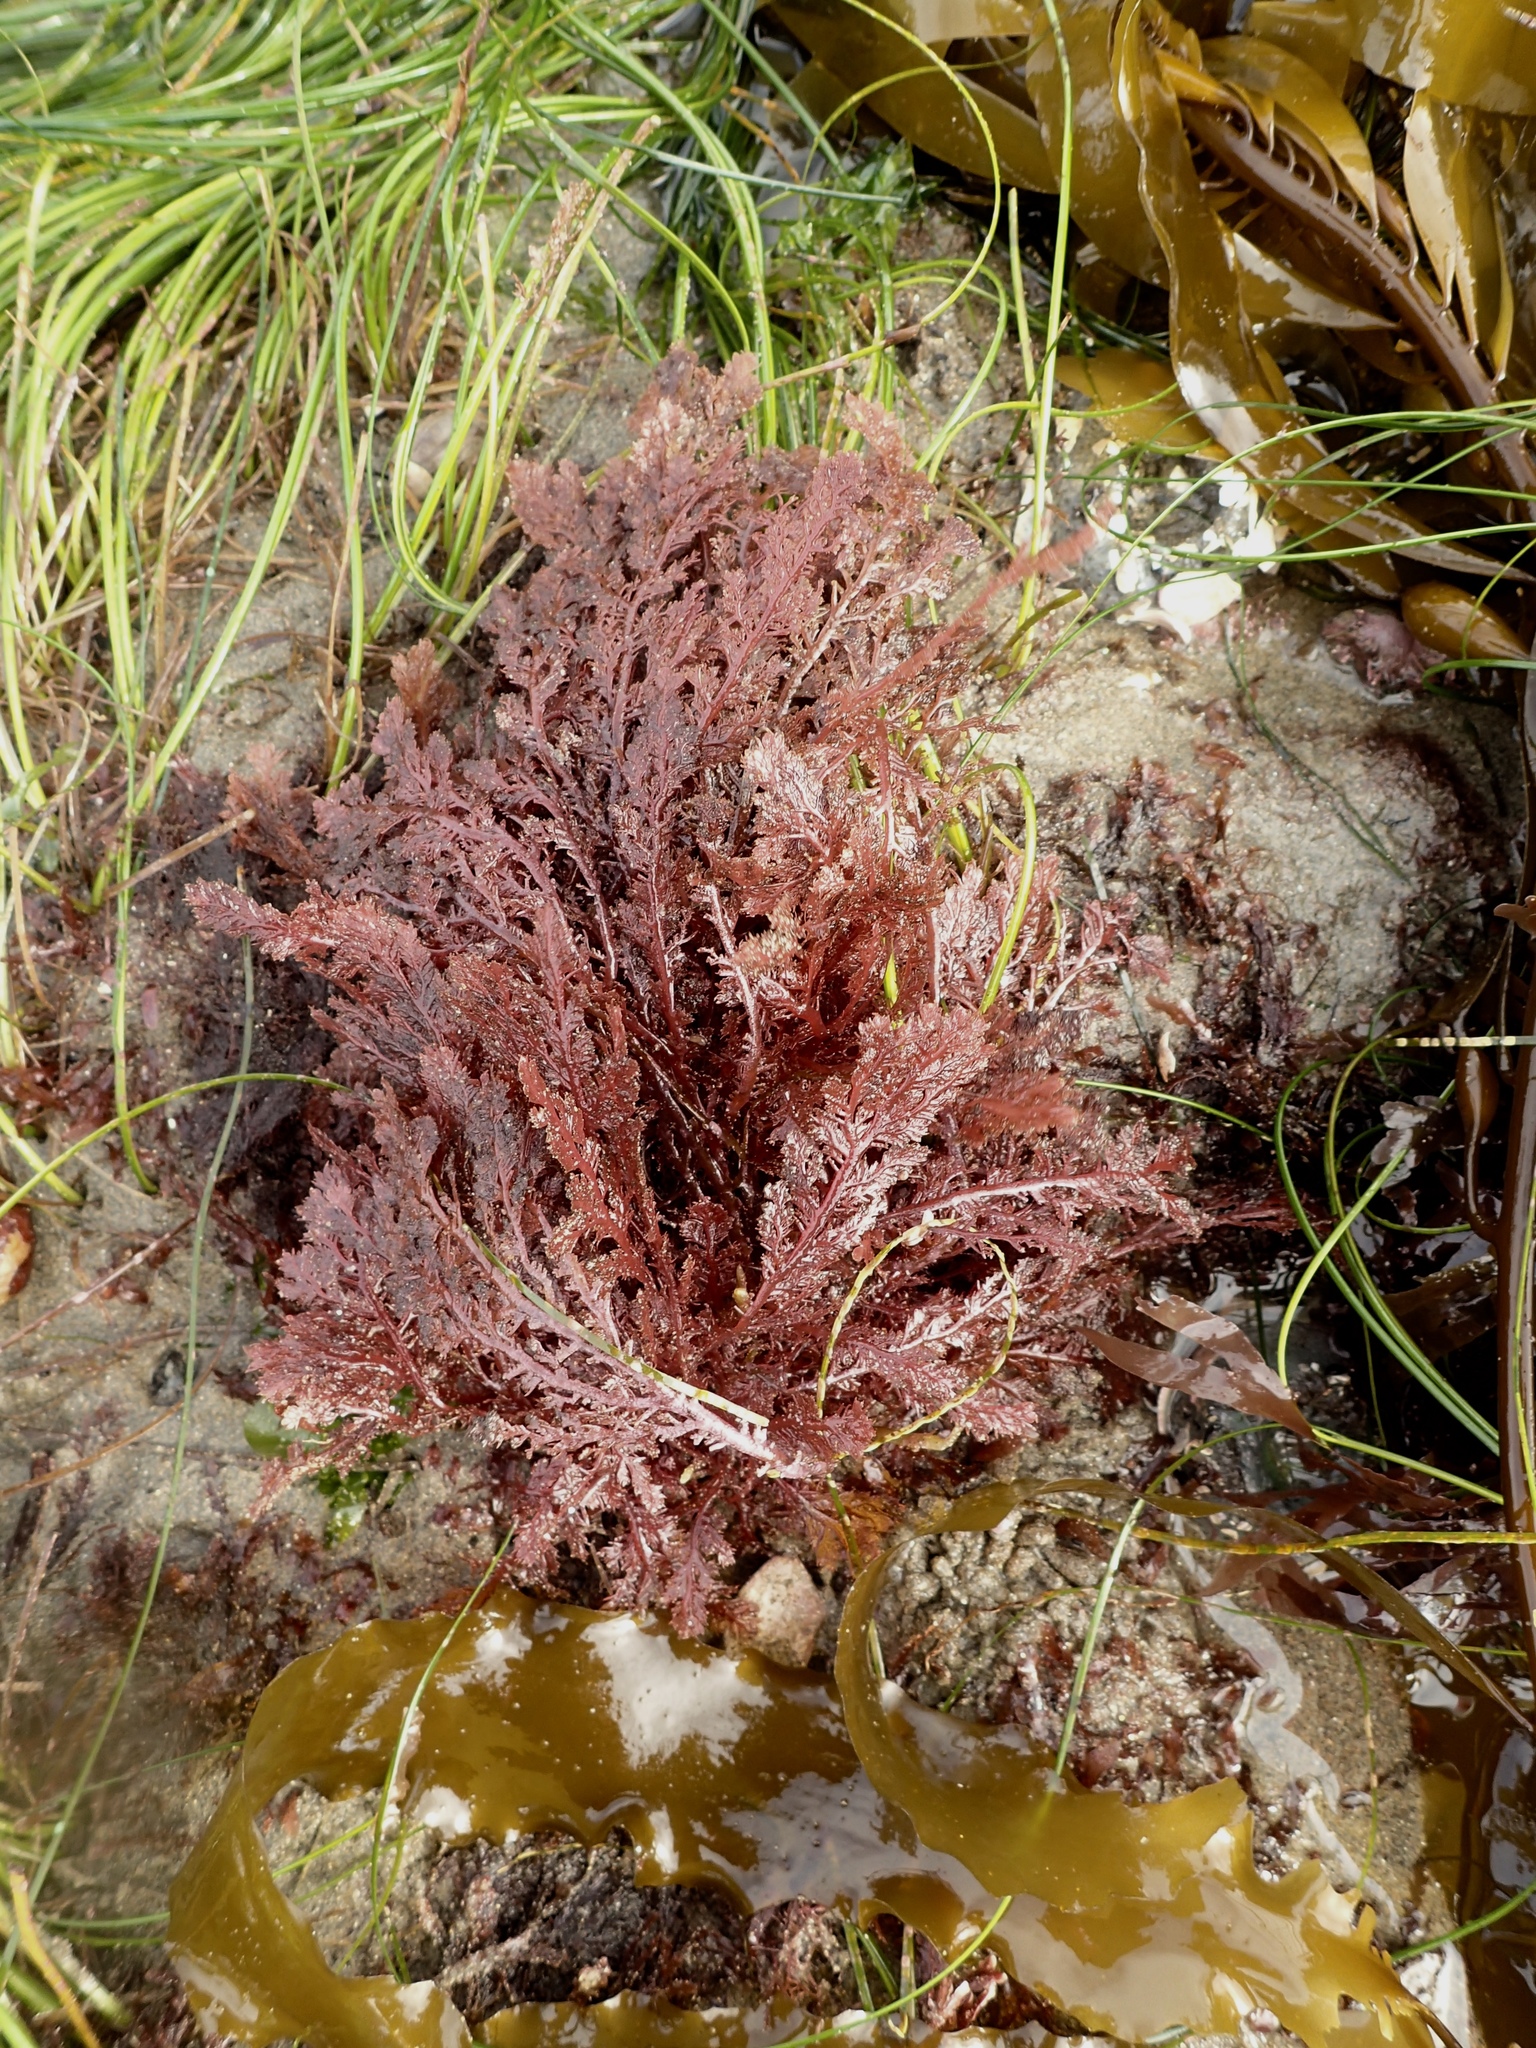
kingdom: Plantae
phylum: Rhodophyta
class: Florideophyceae
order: Plocamiales
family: Plocamiaceae
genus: Plocamium
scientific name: Plocamium cartilagineum
